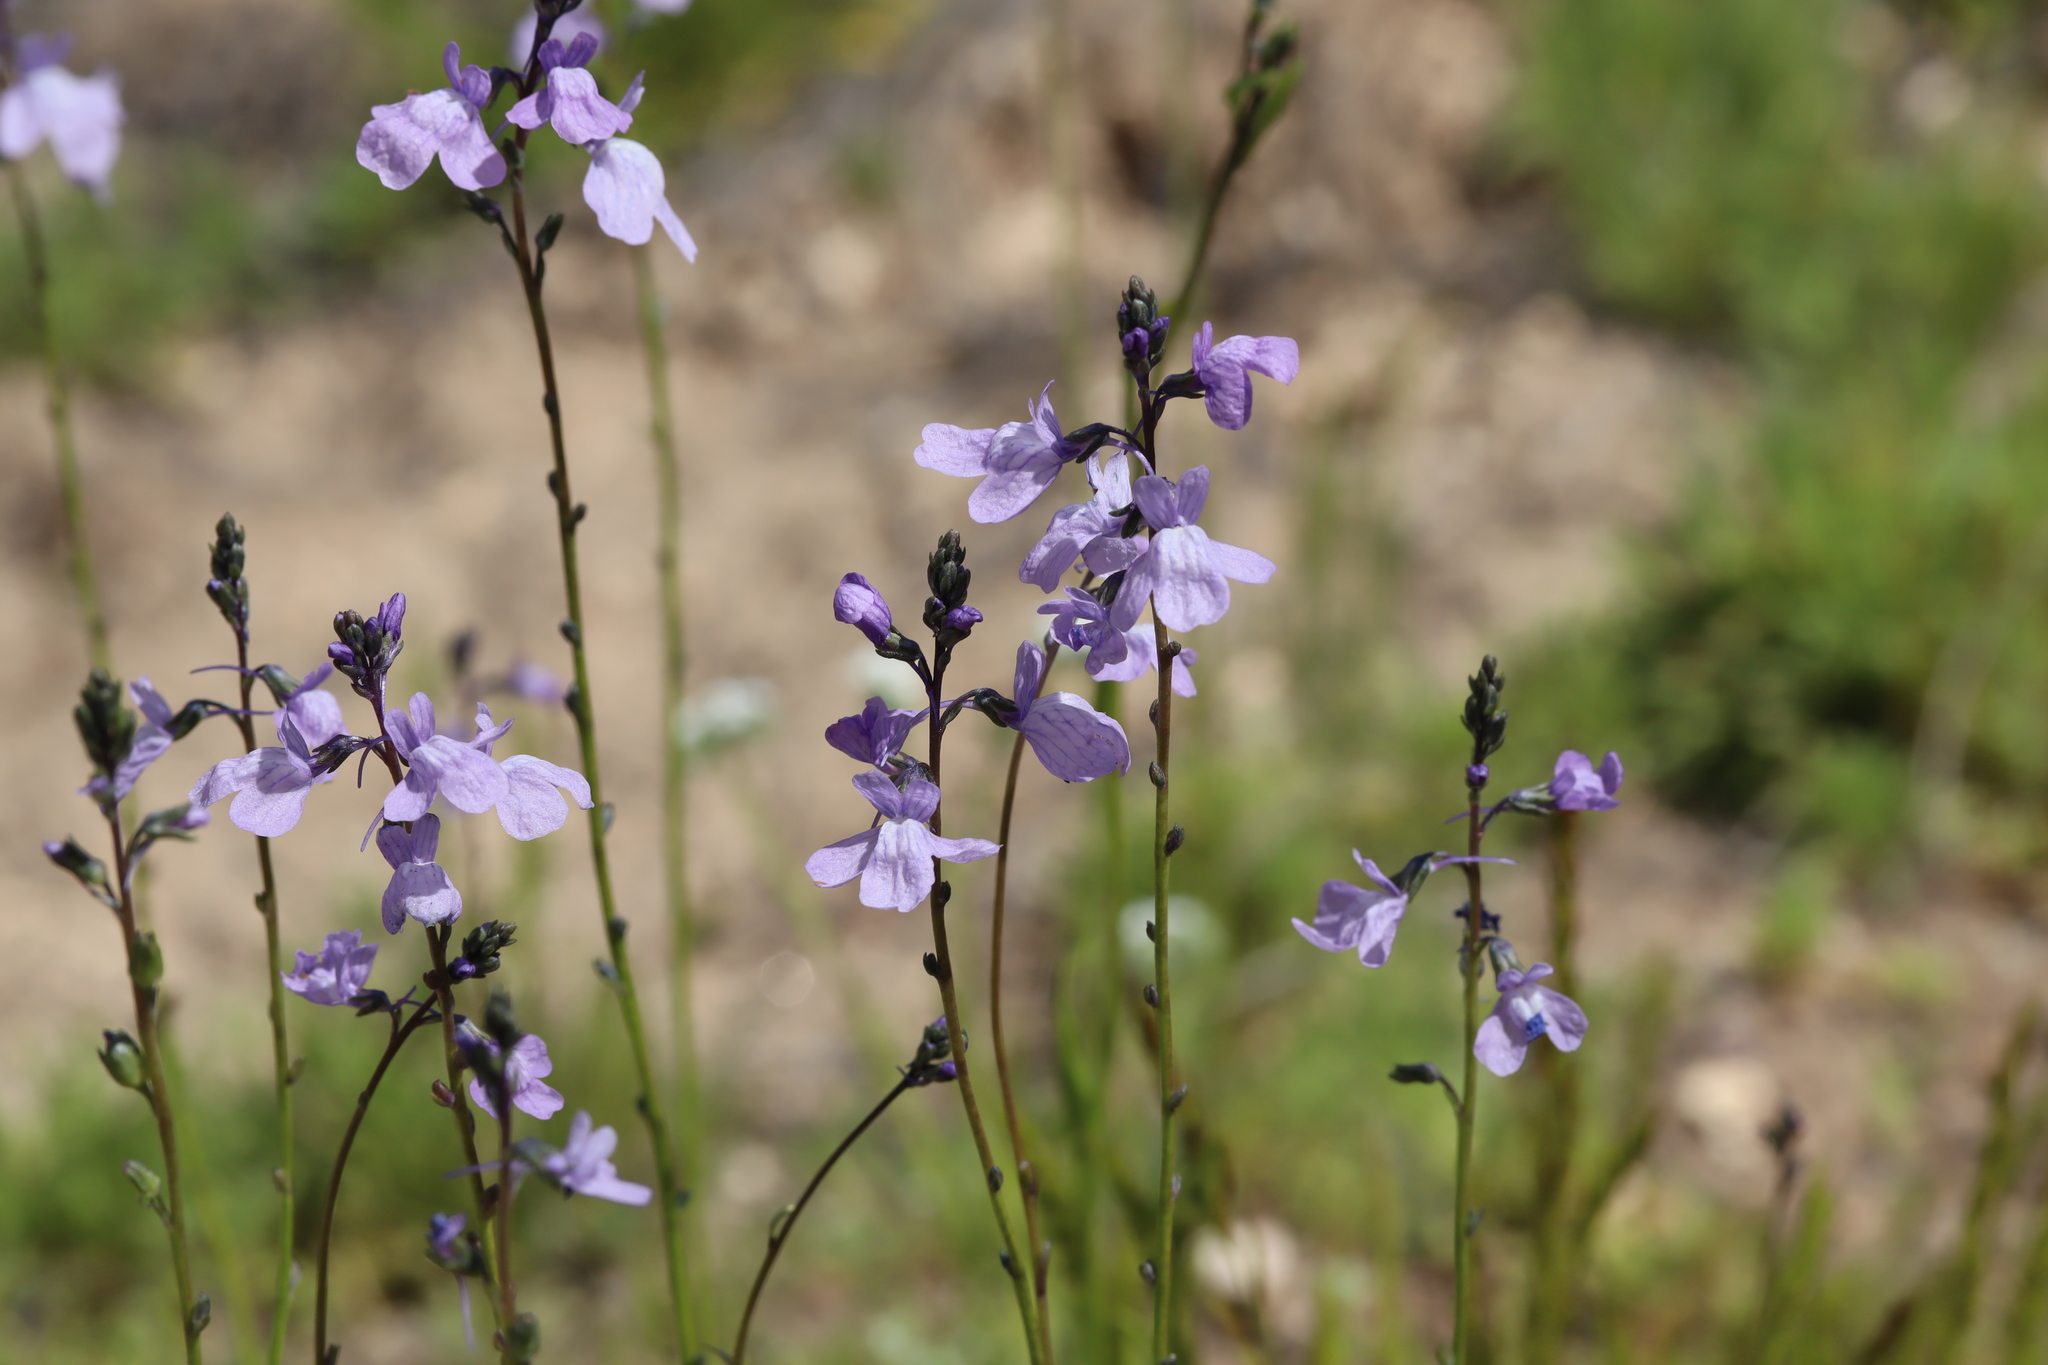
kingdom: Plantae
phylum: Tracheophyta
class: Magnoliopsida
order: Lamiales
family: Plantaginaceae
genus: Nuttallanthus
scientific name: Nuttallanthus texanus
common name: Texas toadflax
